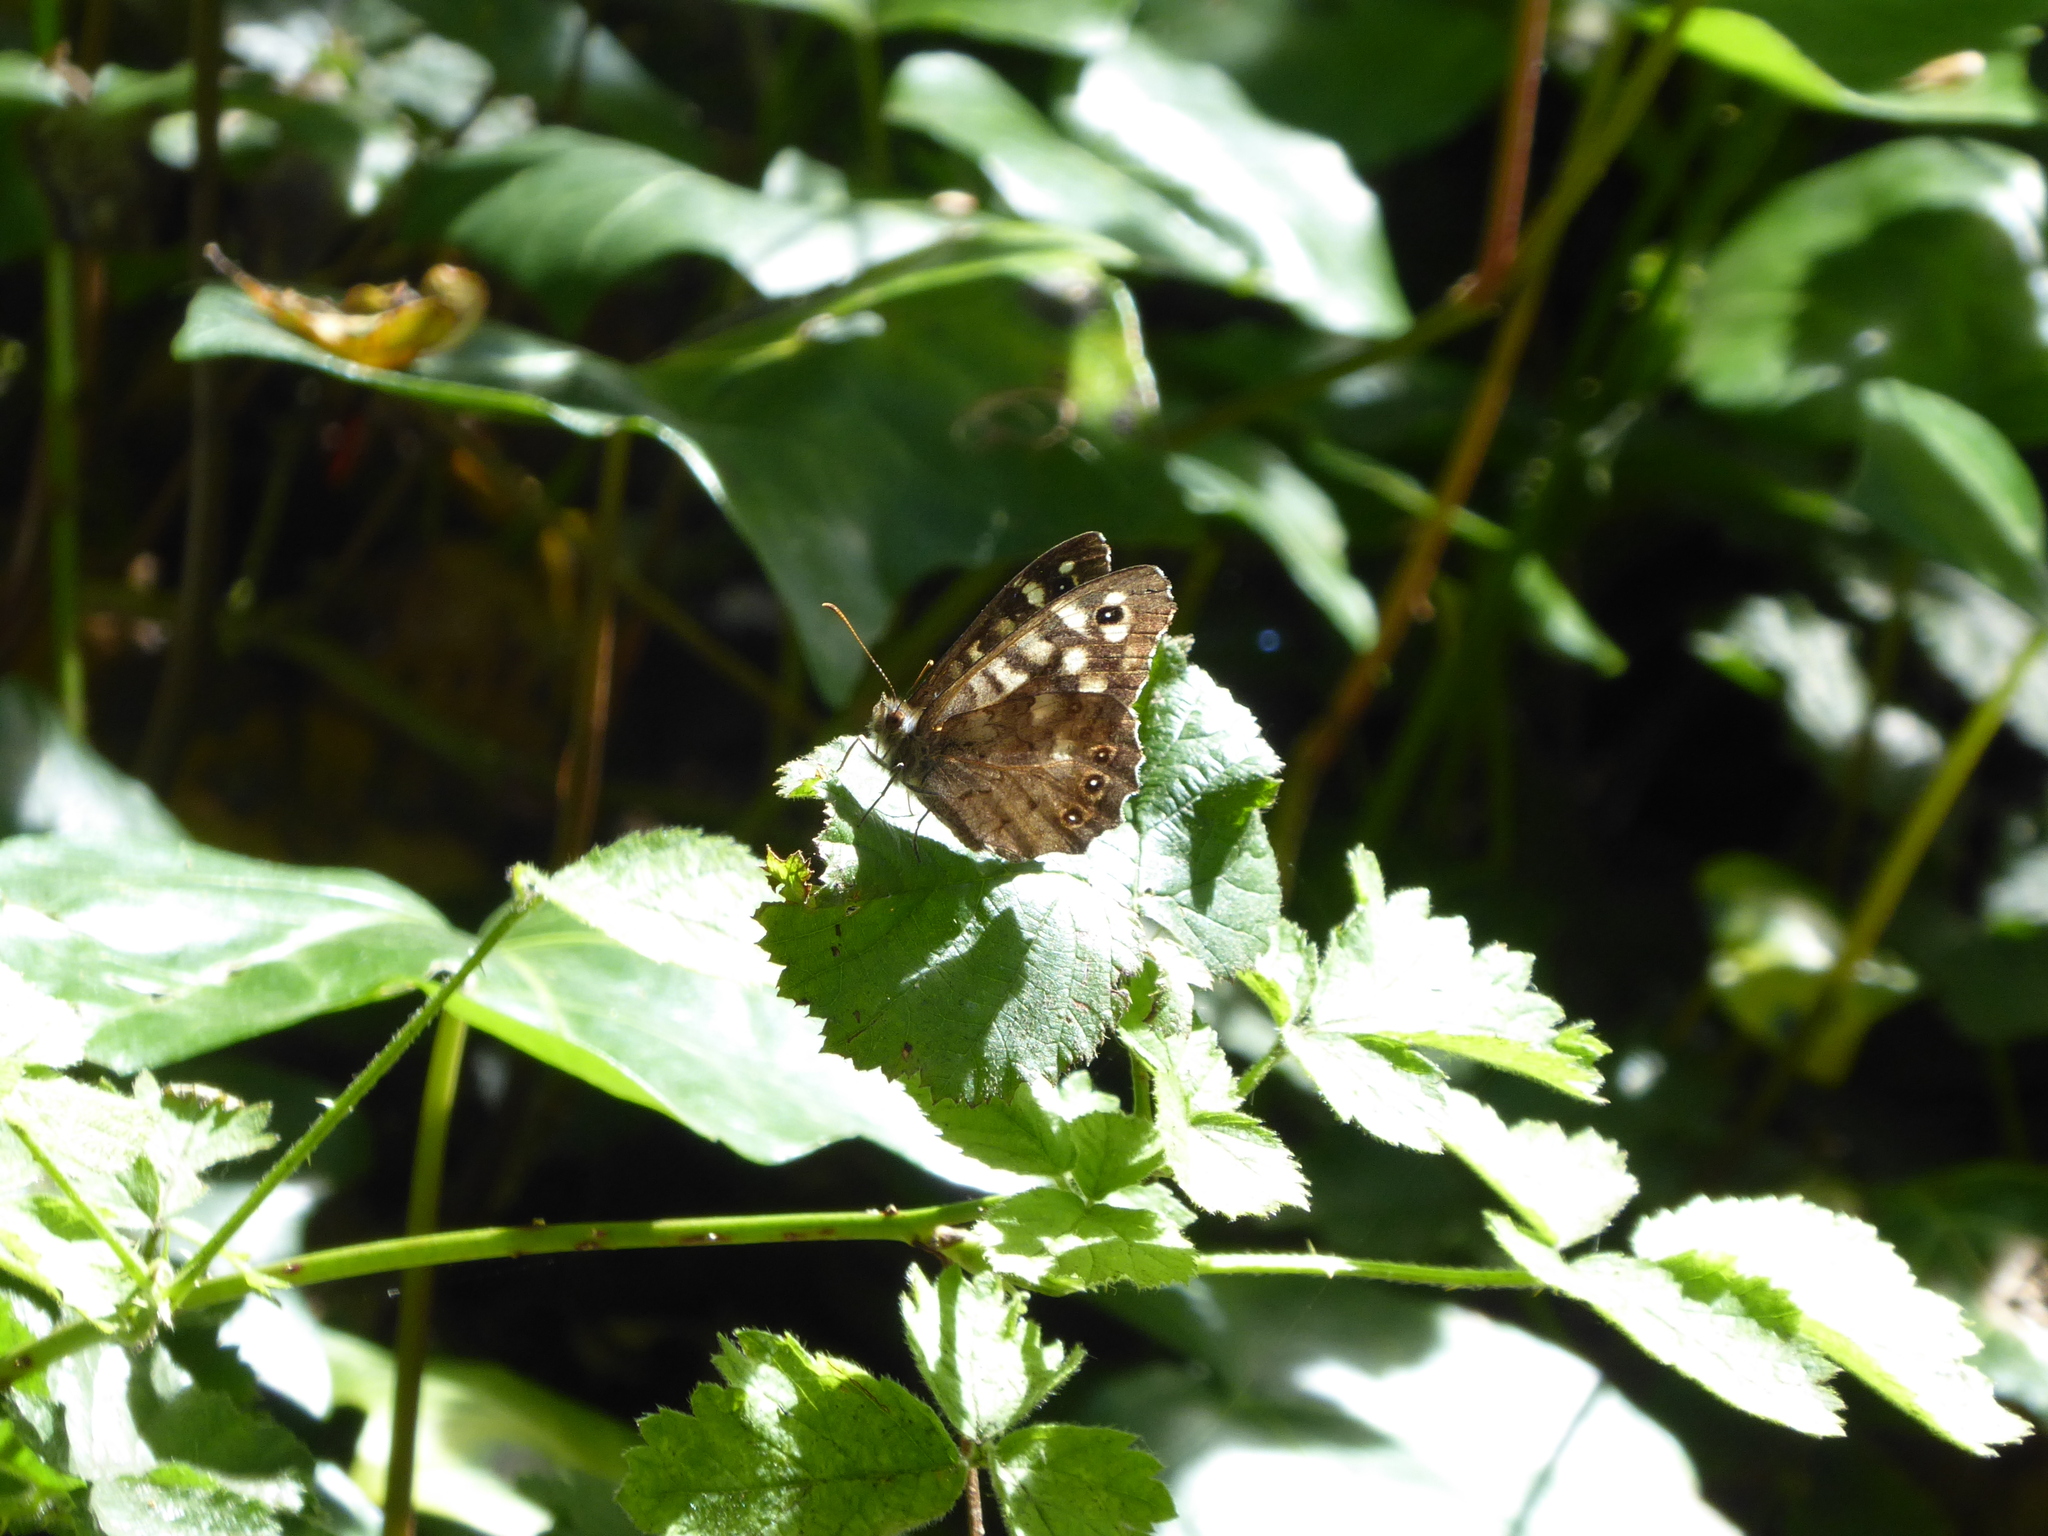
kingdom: Animalia
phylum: Arthropoda
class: Insecta
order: Lepidoptera
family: Nymphalidae
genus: Pararge
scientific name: Pararge aegeria
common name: Speckled wood
